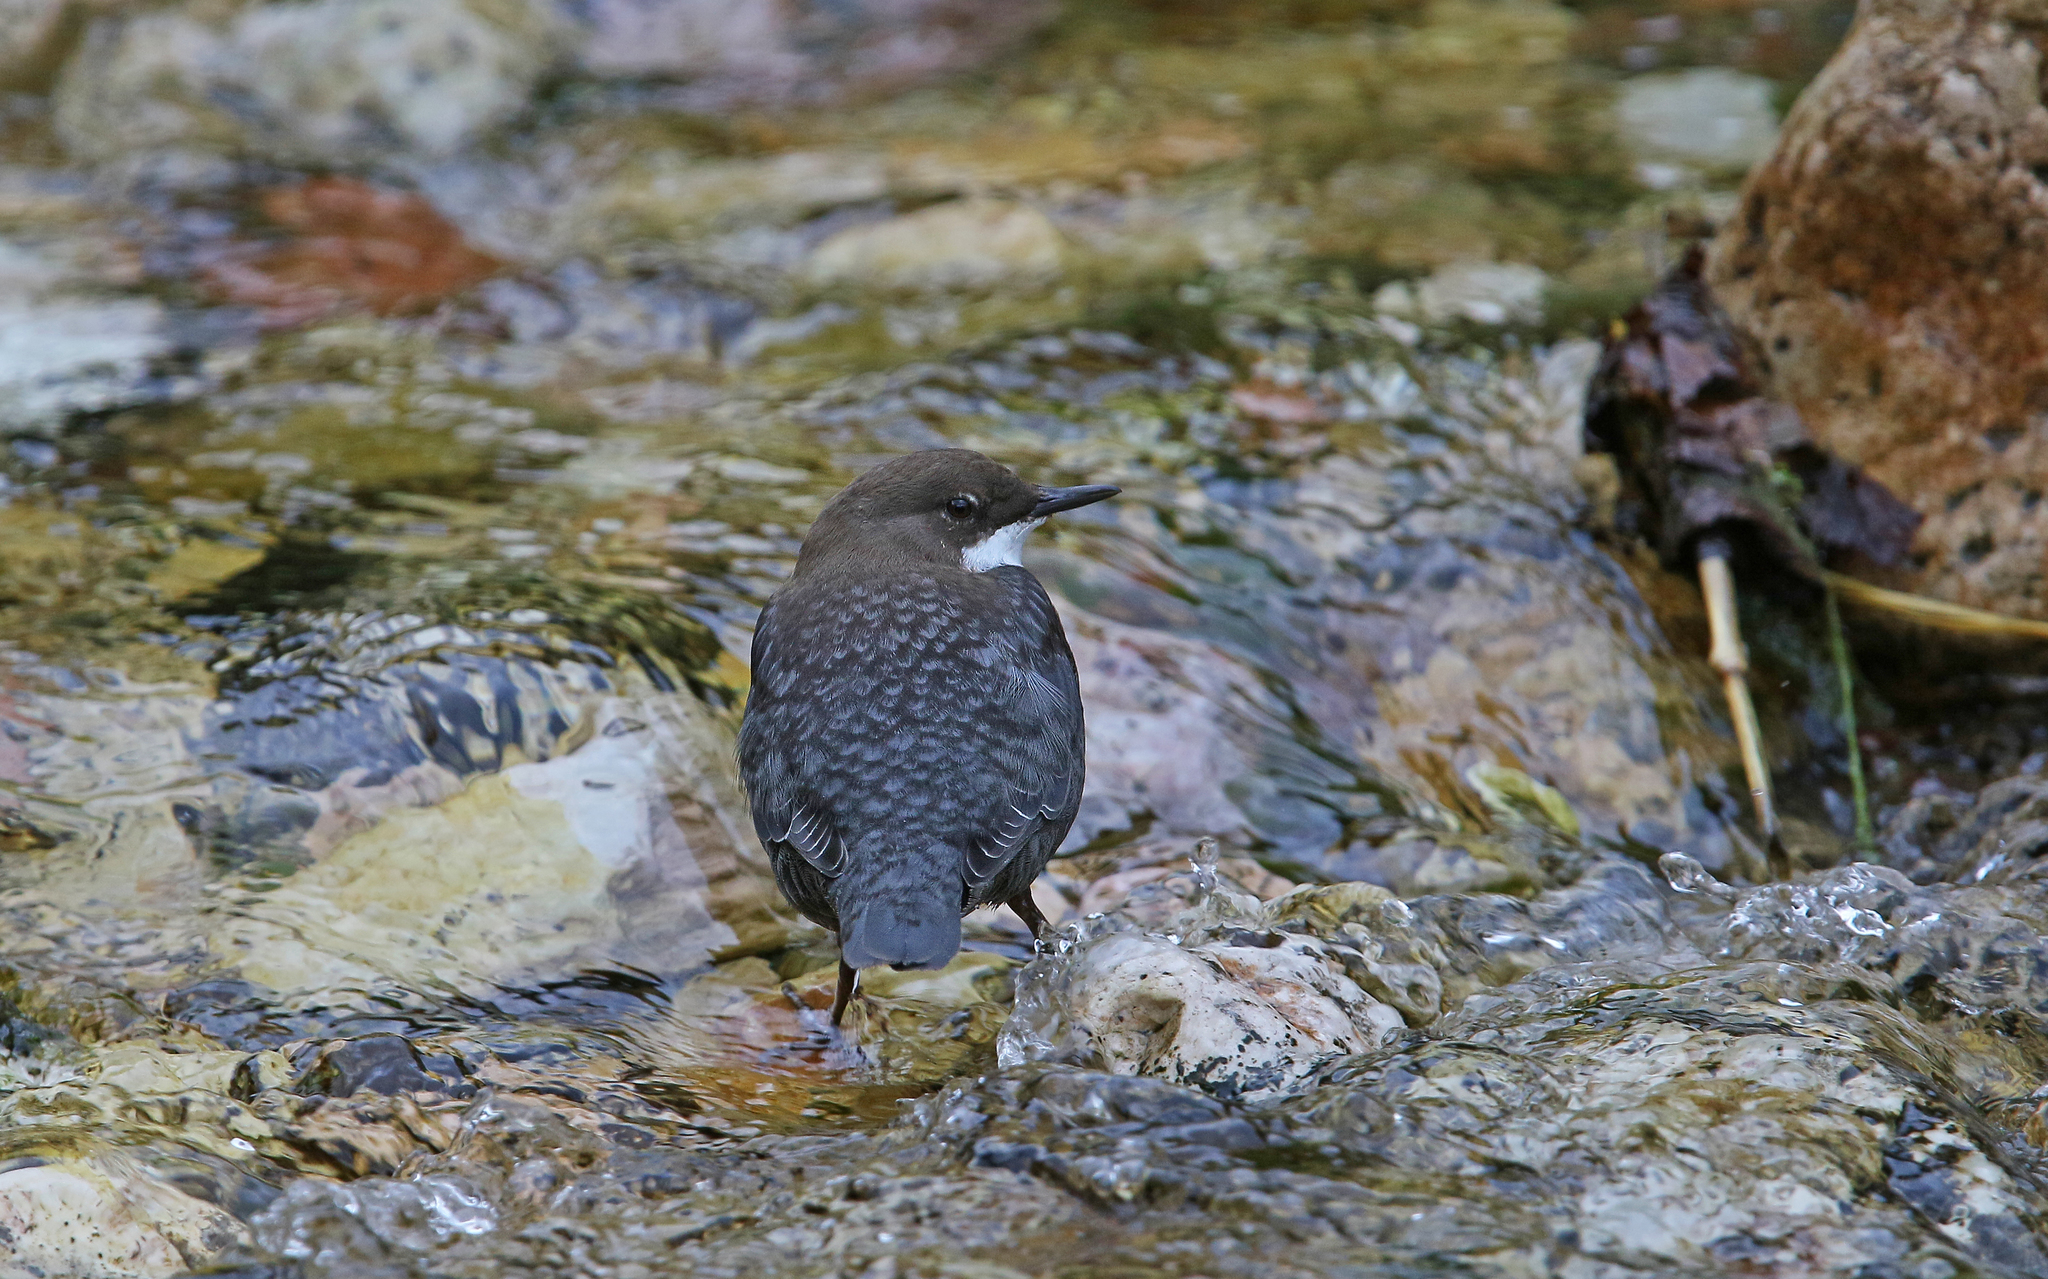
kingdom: Animalia
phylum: Chordata
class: Aves
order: Passeriformes
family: Cinclidae
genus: Cinclus
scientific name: Cinclus cinclus
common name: White-throated dipper
